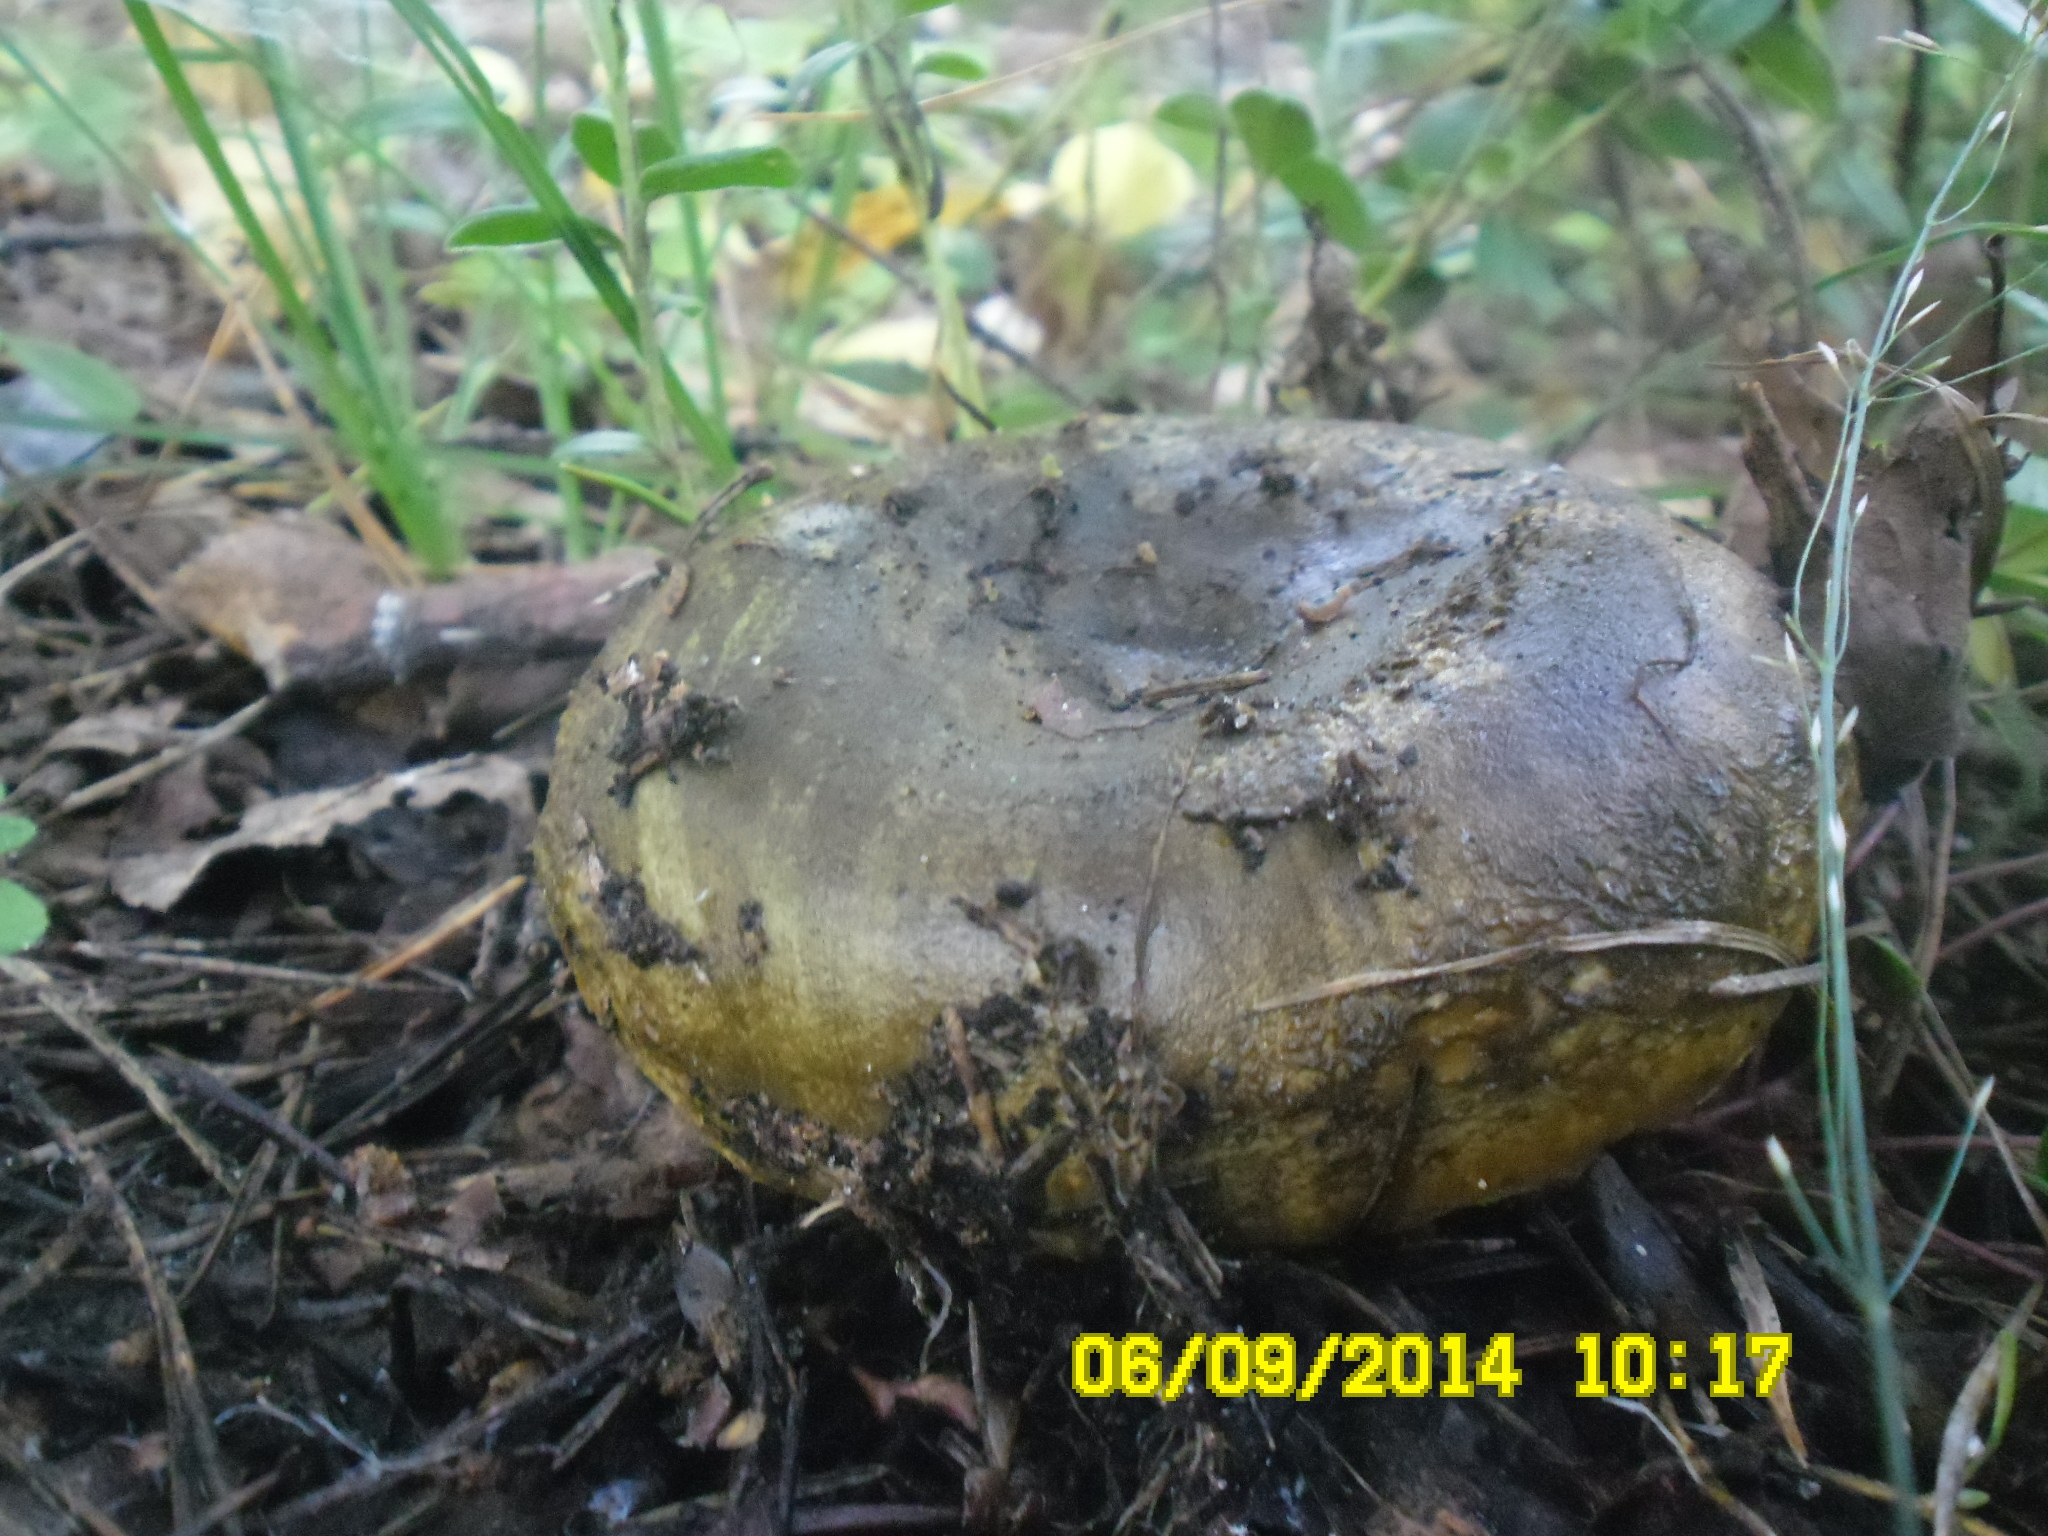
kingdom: Fungi
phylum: Basidiomycota
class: Agaricomycetes
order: Russulales
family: Russulaceae
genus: Lactarius
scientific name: Lactarius turpis
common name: Ugly milk-cap
